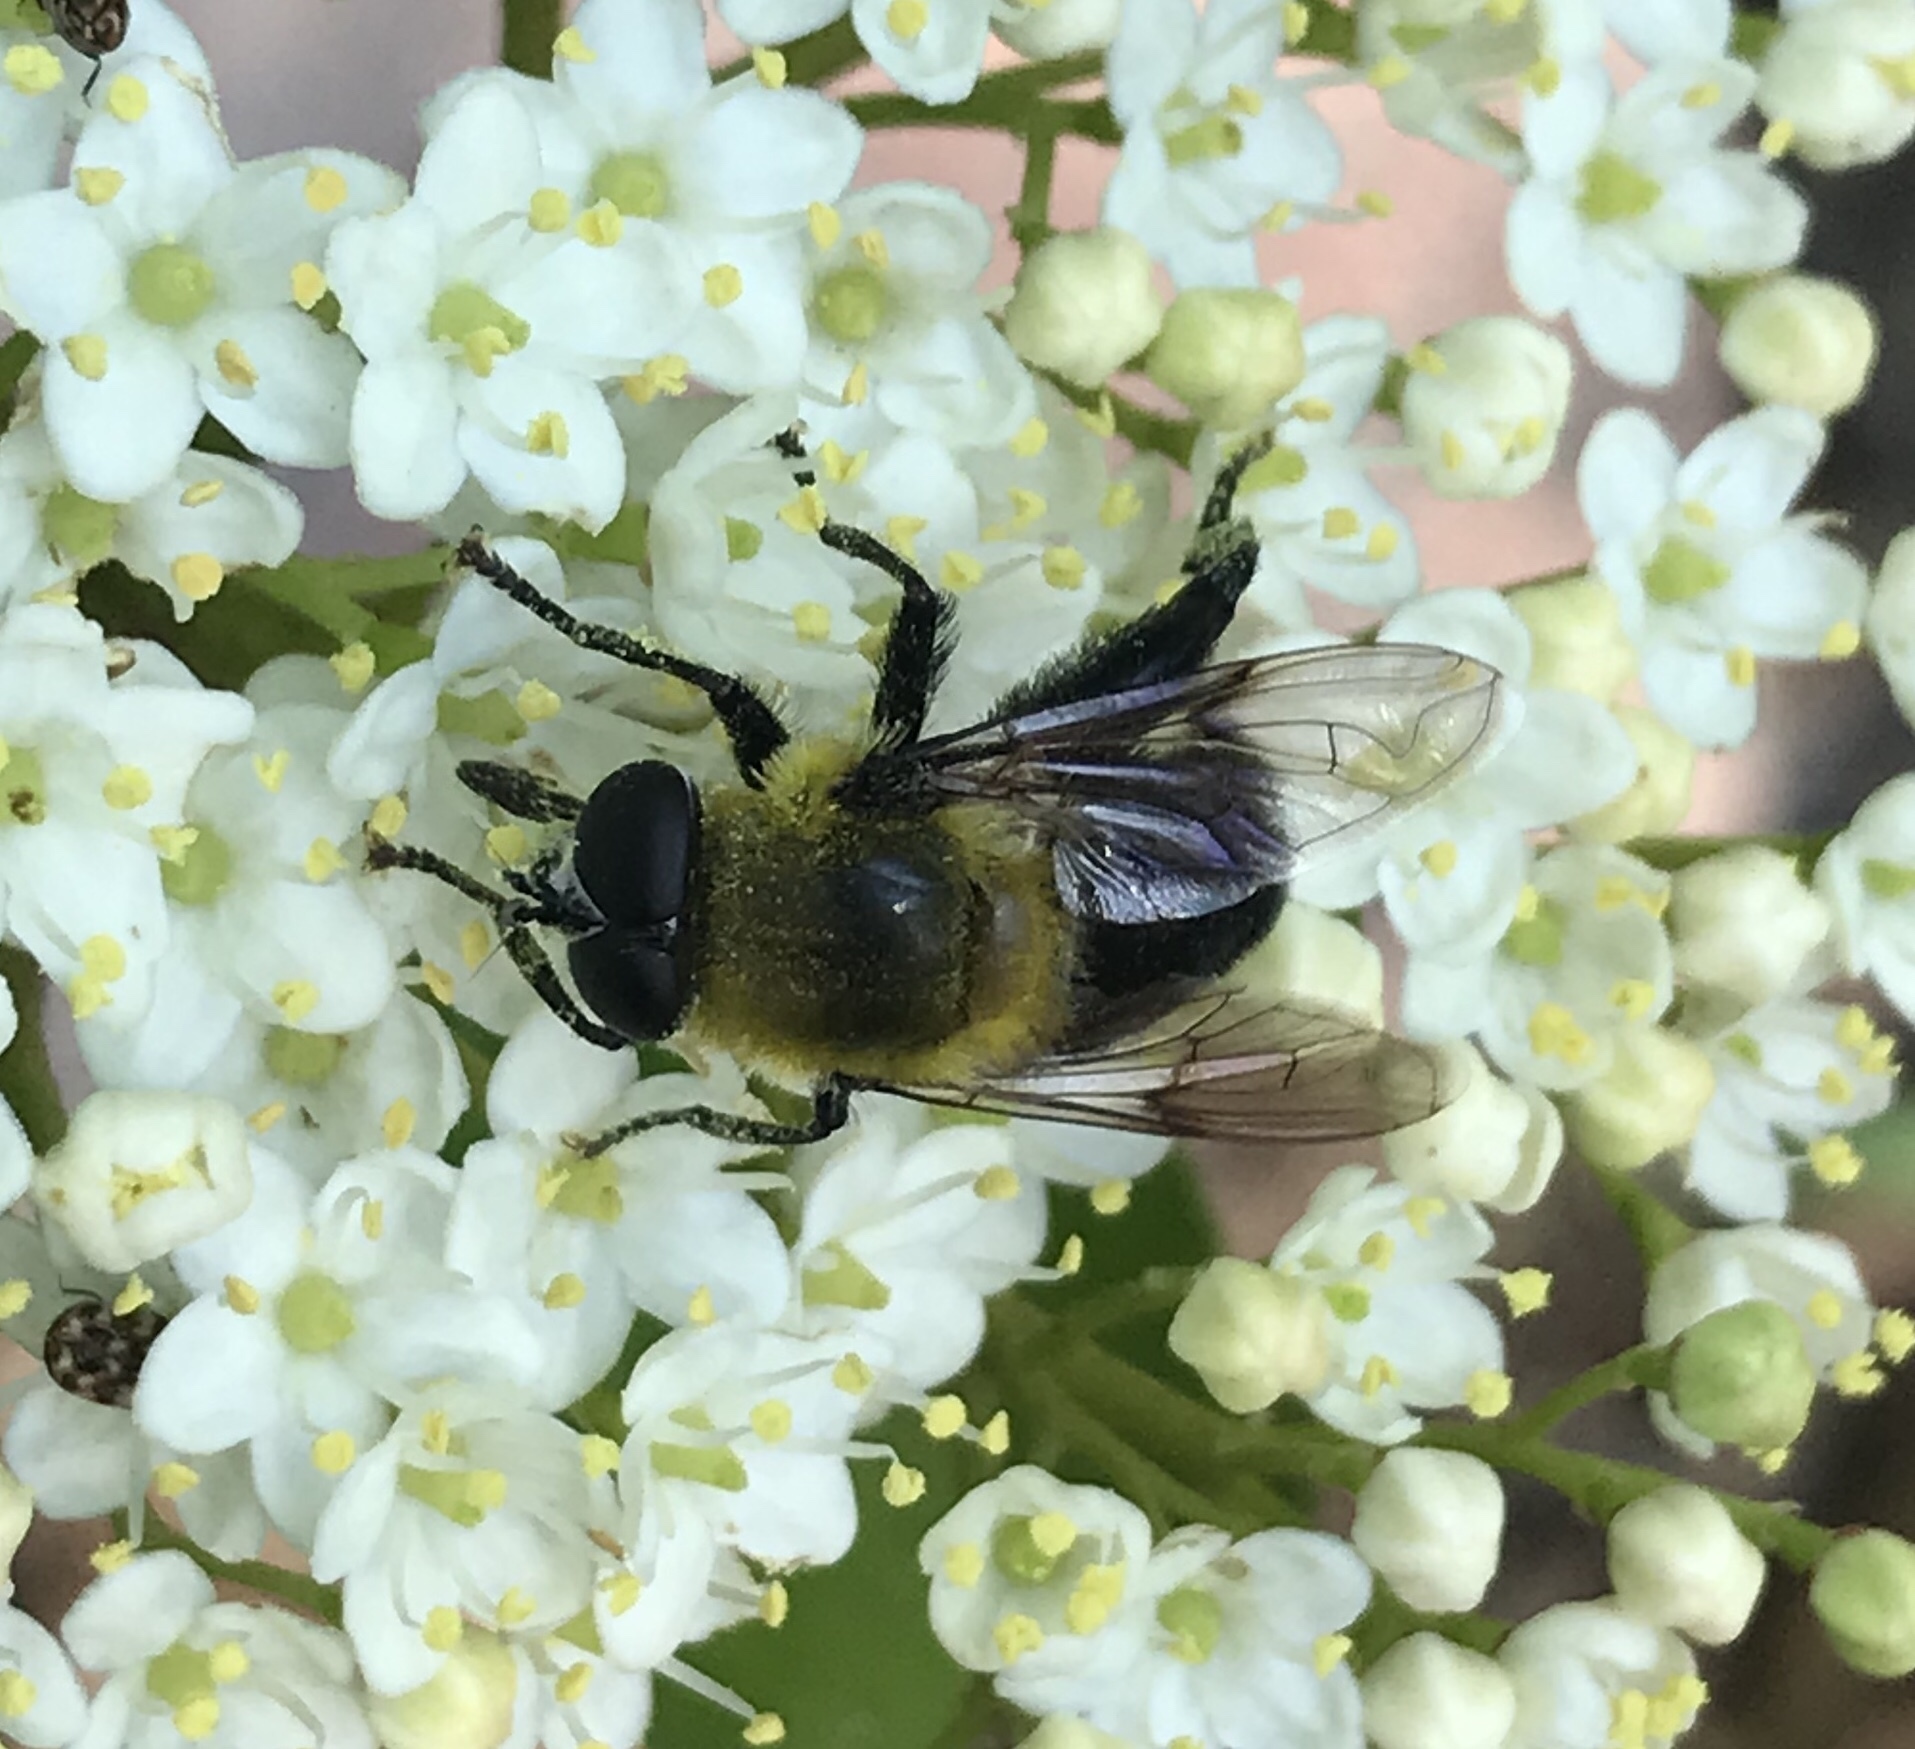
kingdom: Animalia
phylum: Arthropoda
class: Insecta
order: Diptera
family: Syrphidae
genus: Imatisma
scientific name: Imatisma bautias
